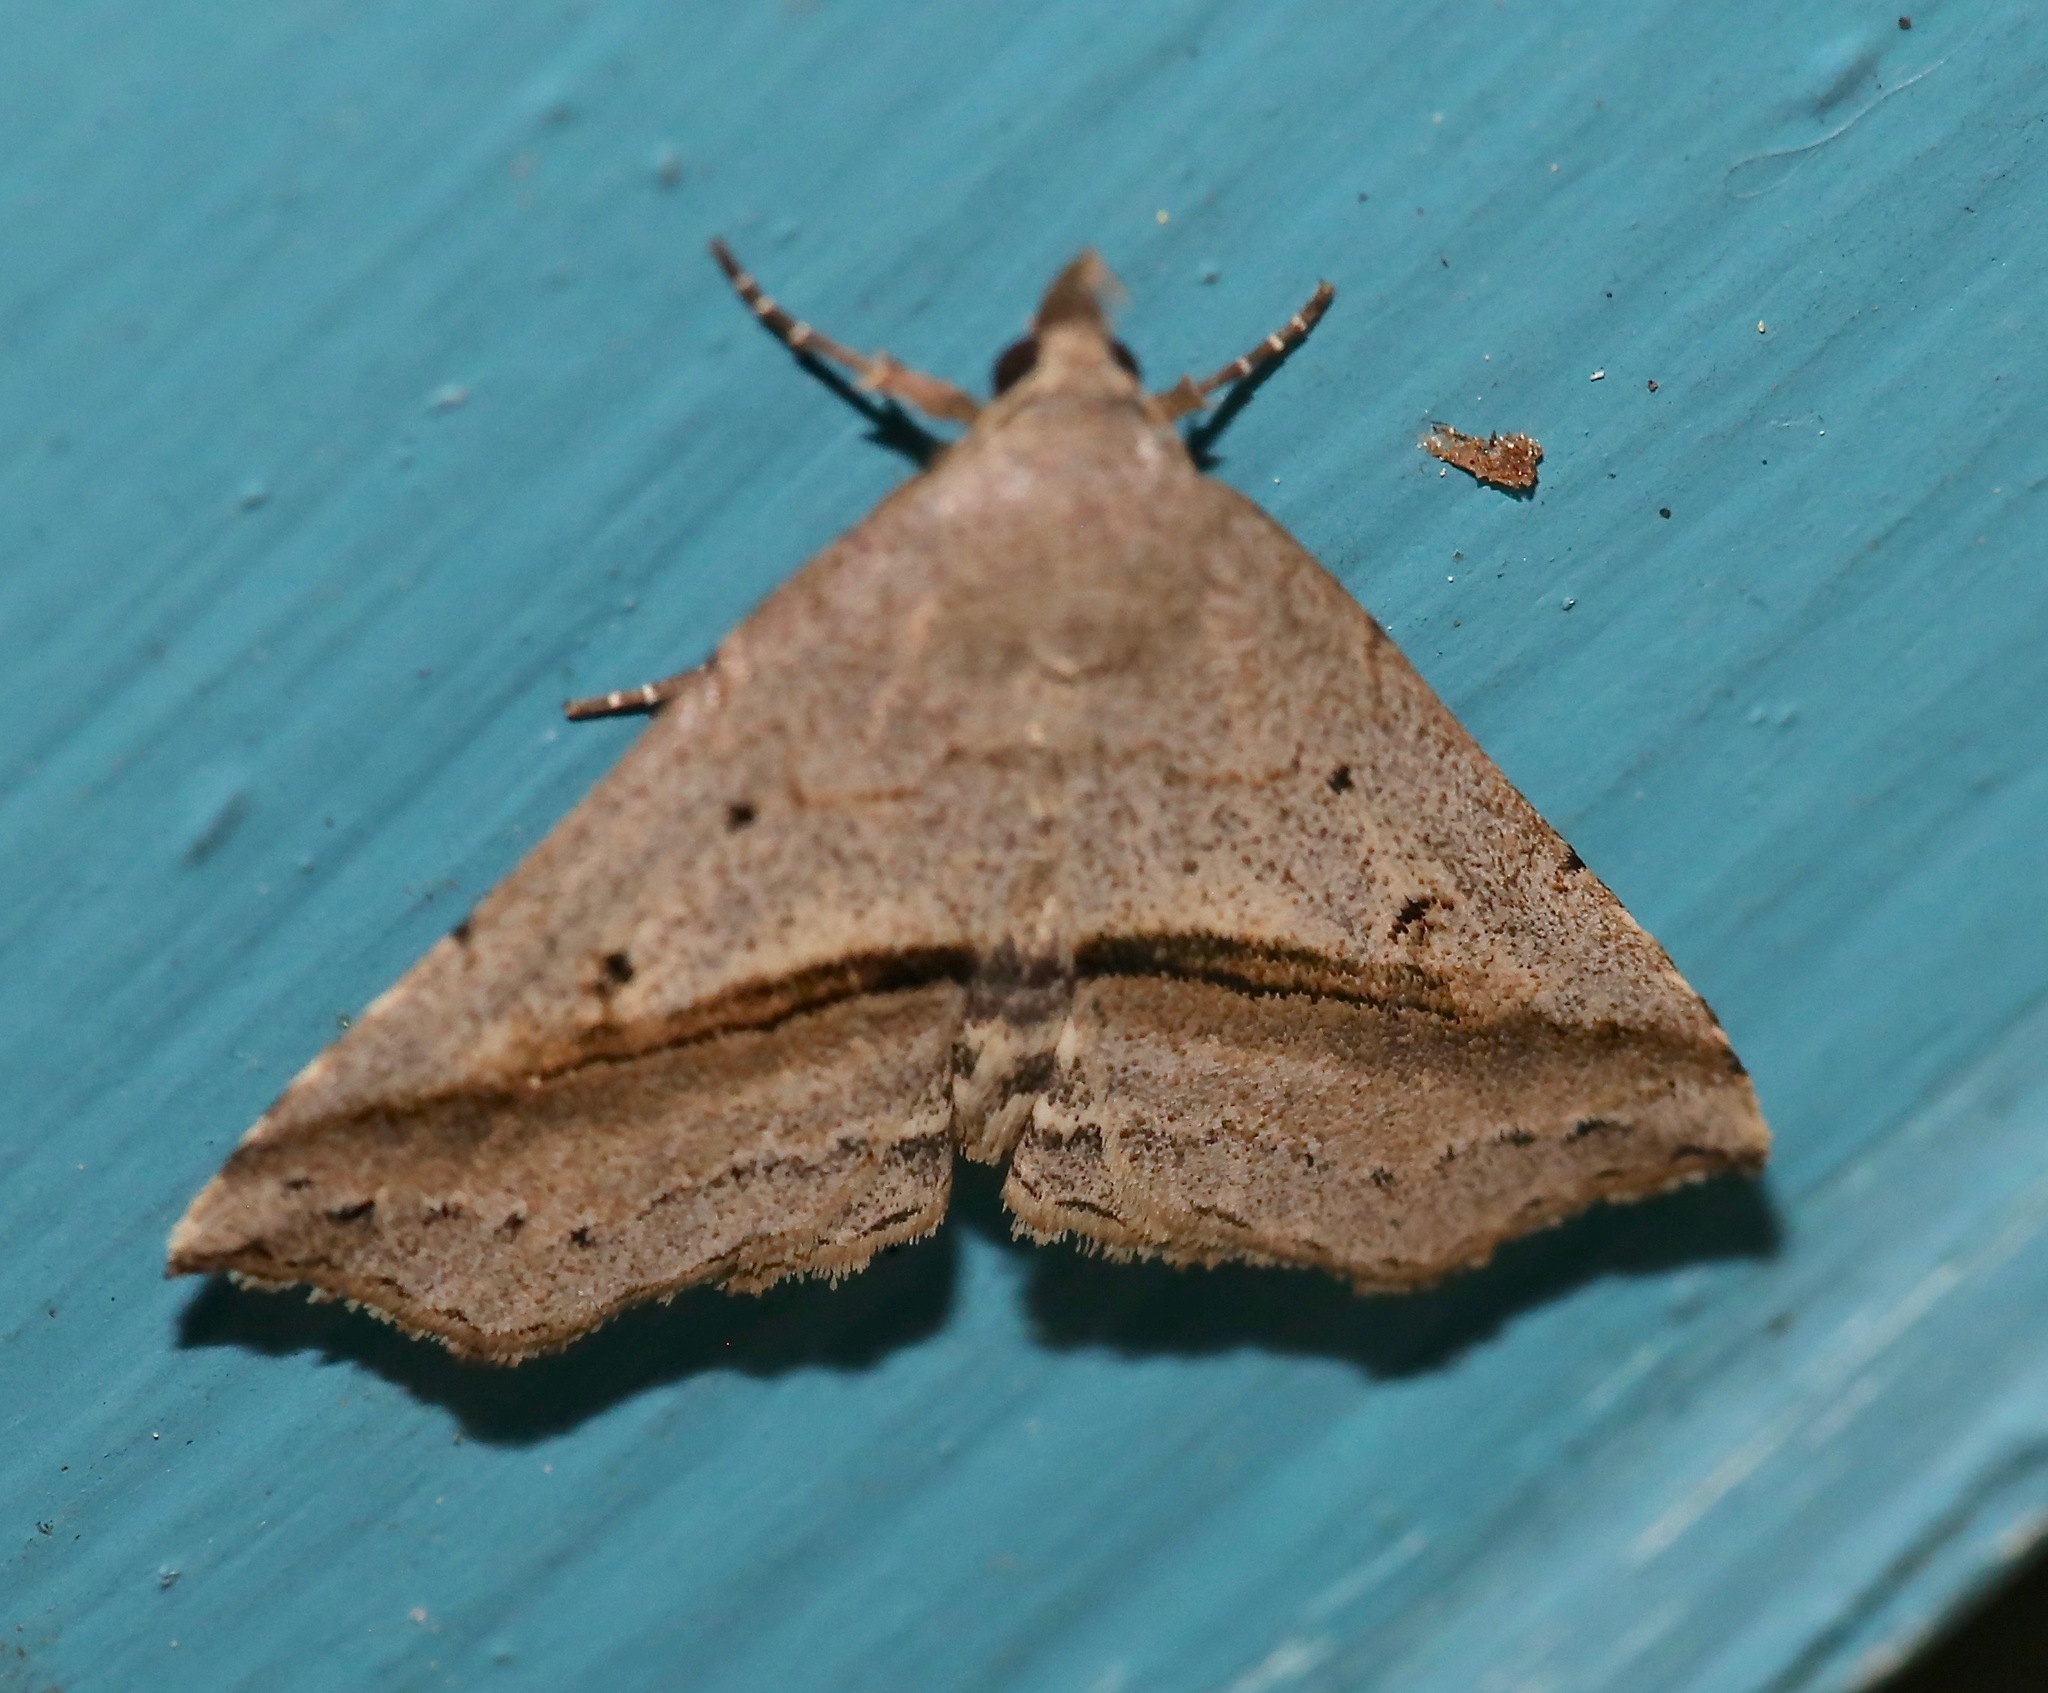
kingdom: Animalia
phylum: Arthropoda
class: Insecta
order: Lepidoptera
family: Erebidae
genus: Spargaloma
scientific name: Spargaloma perditalis
